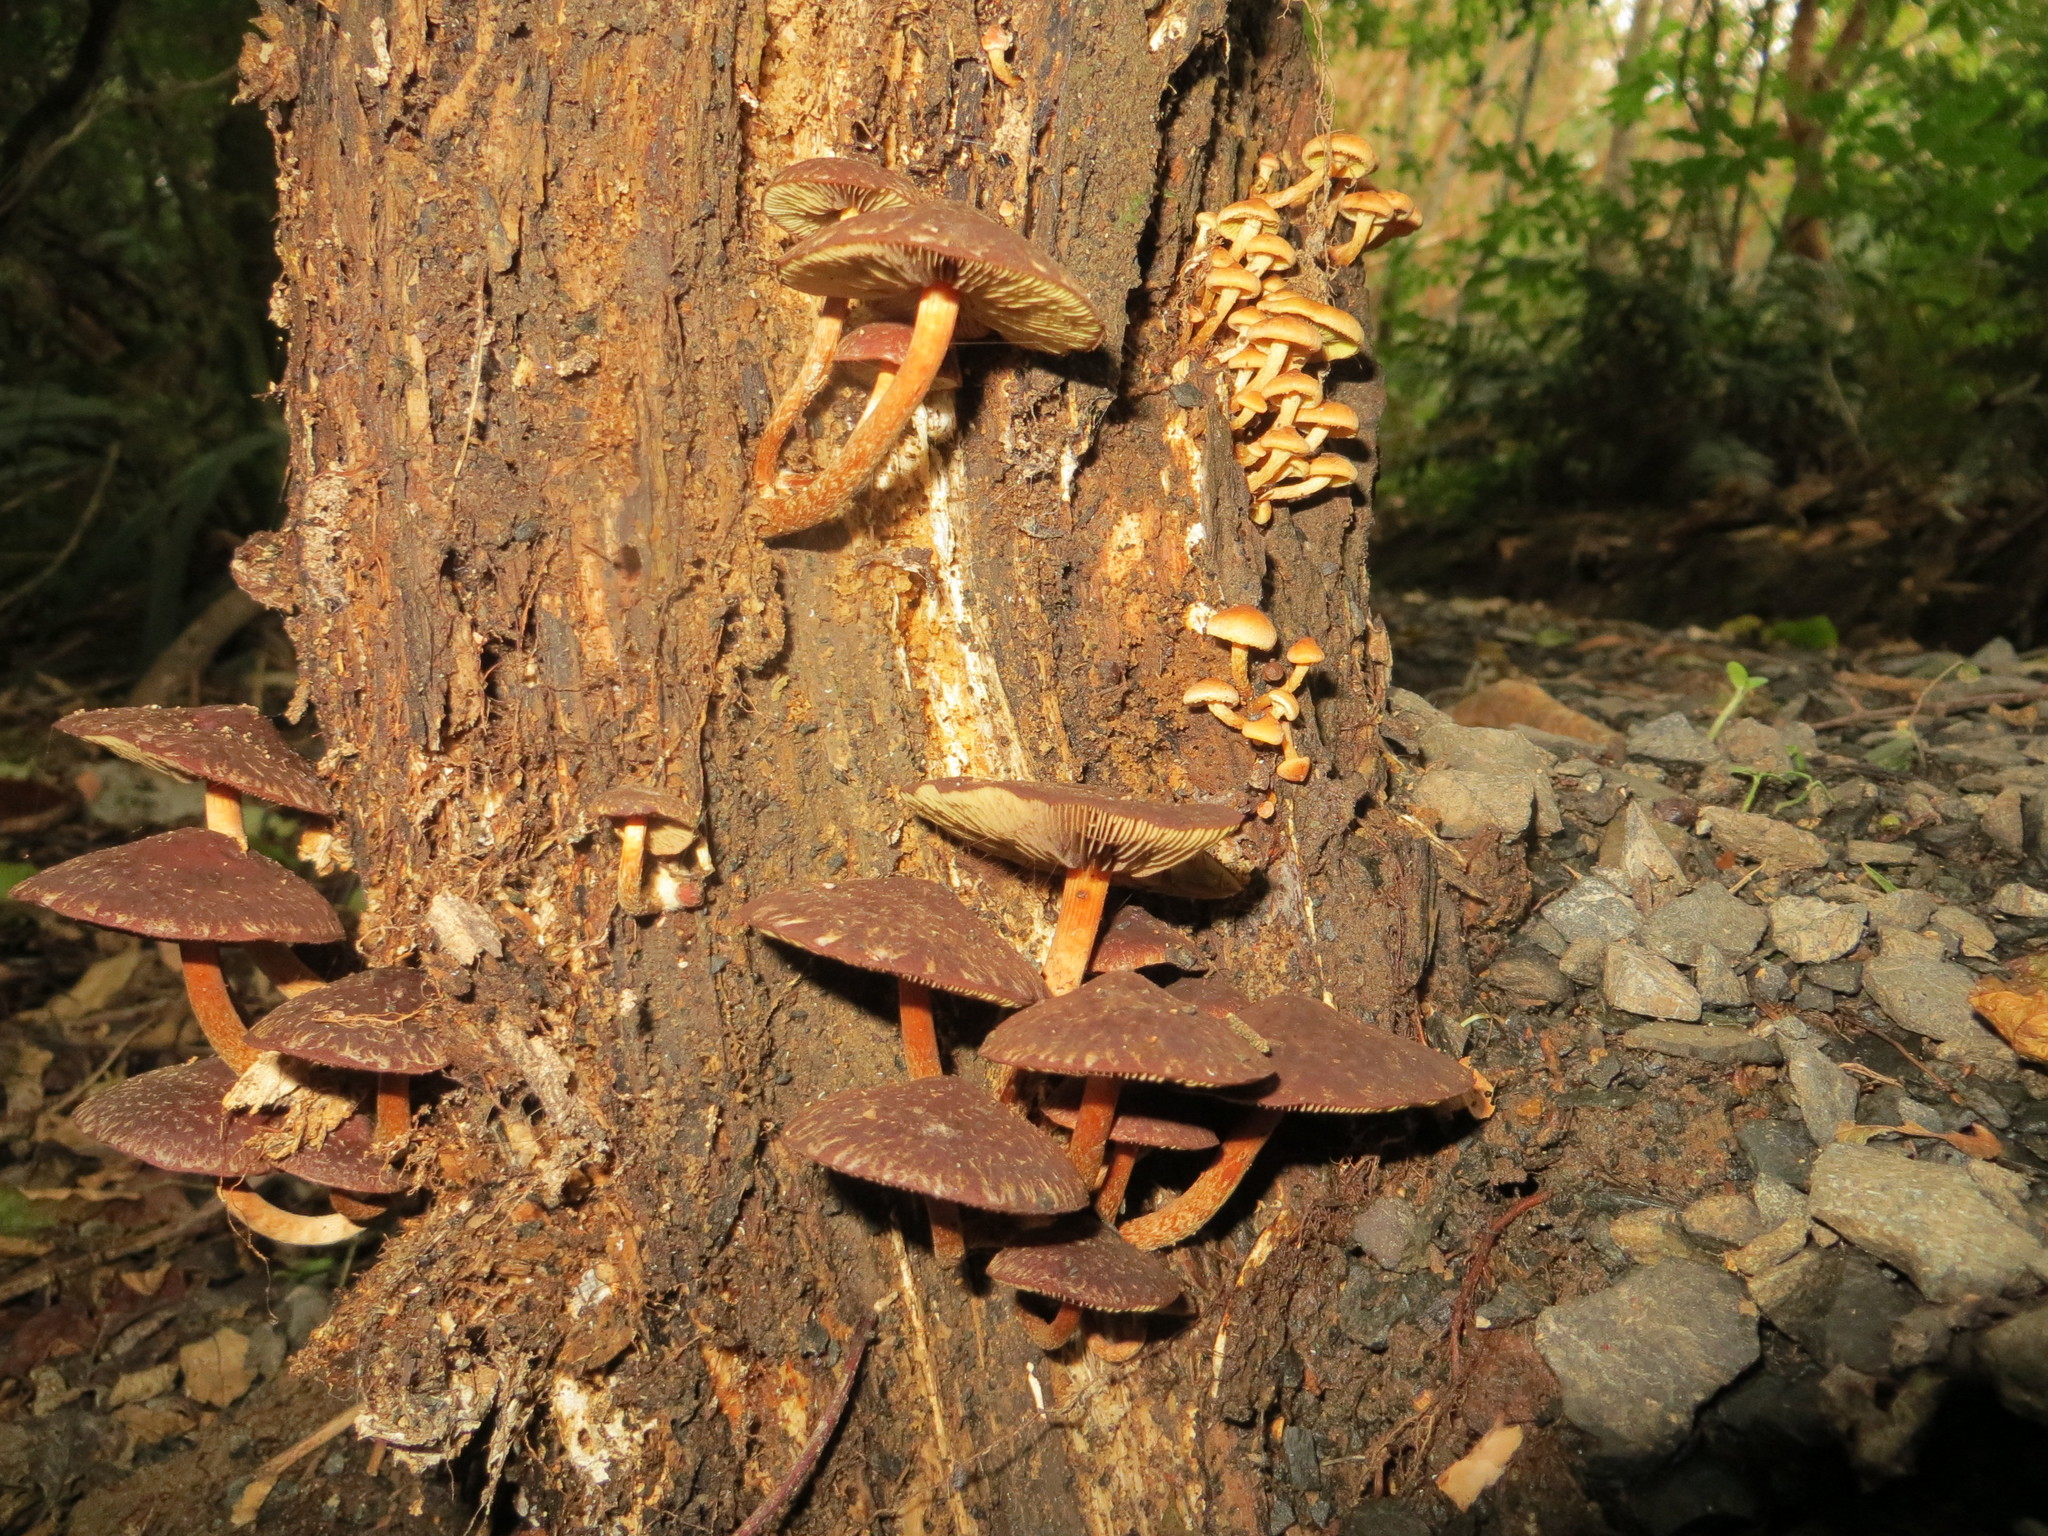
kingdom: Fungi
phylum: Basidiomycota
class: Agaricomycetes
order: Agaricales
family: Strophariaceae
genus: Hypholoma
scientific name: Hypholoma brunneum
